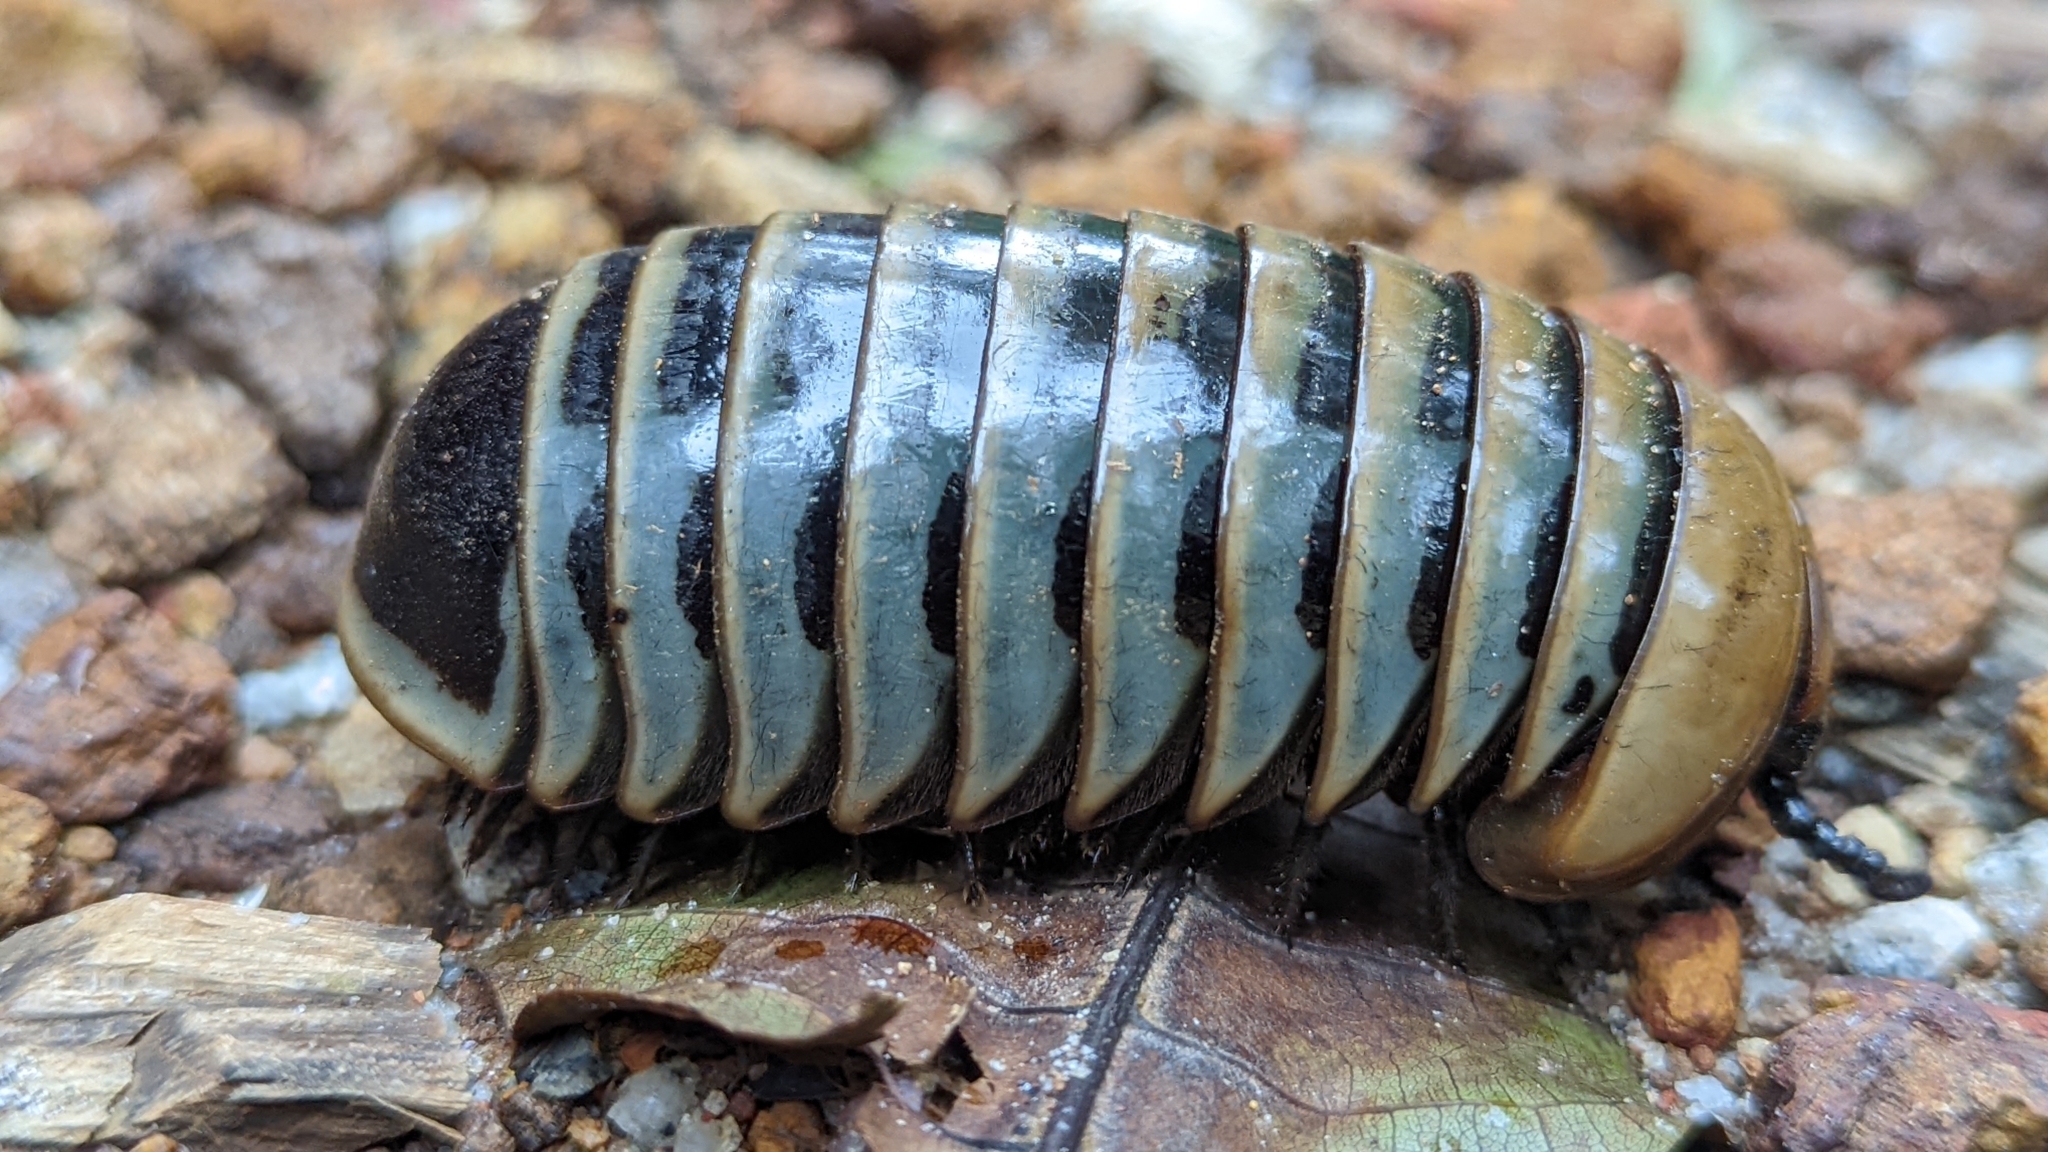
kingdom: Animalia
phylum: Arthropoda
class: Diplopoda
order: Sphaerotheriida
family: Arthrosphaeridae
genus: Arthrosphaera
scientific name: Arthrosphaera fumosa
